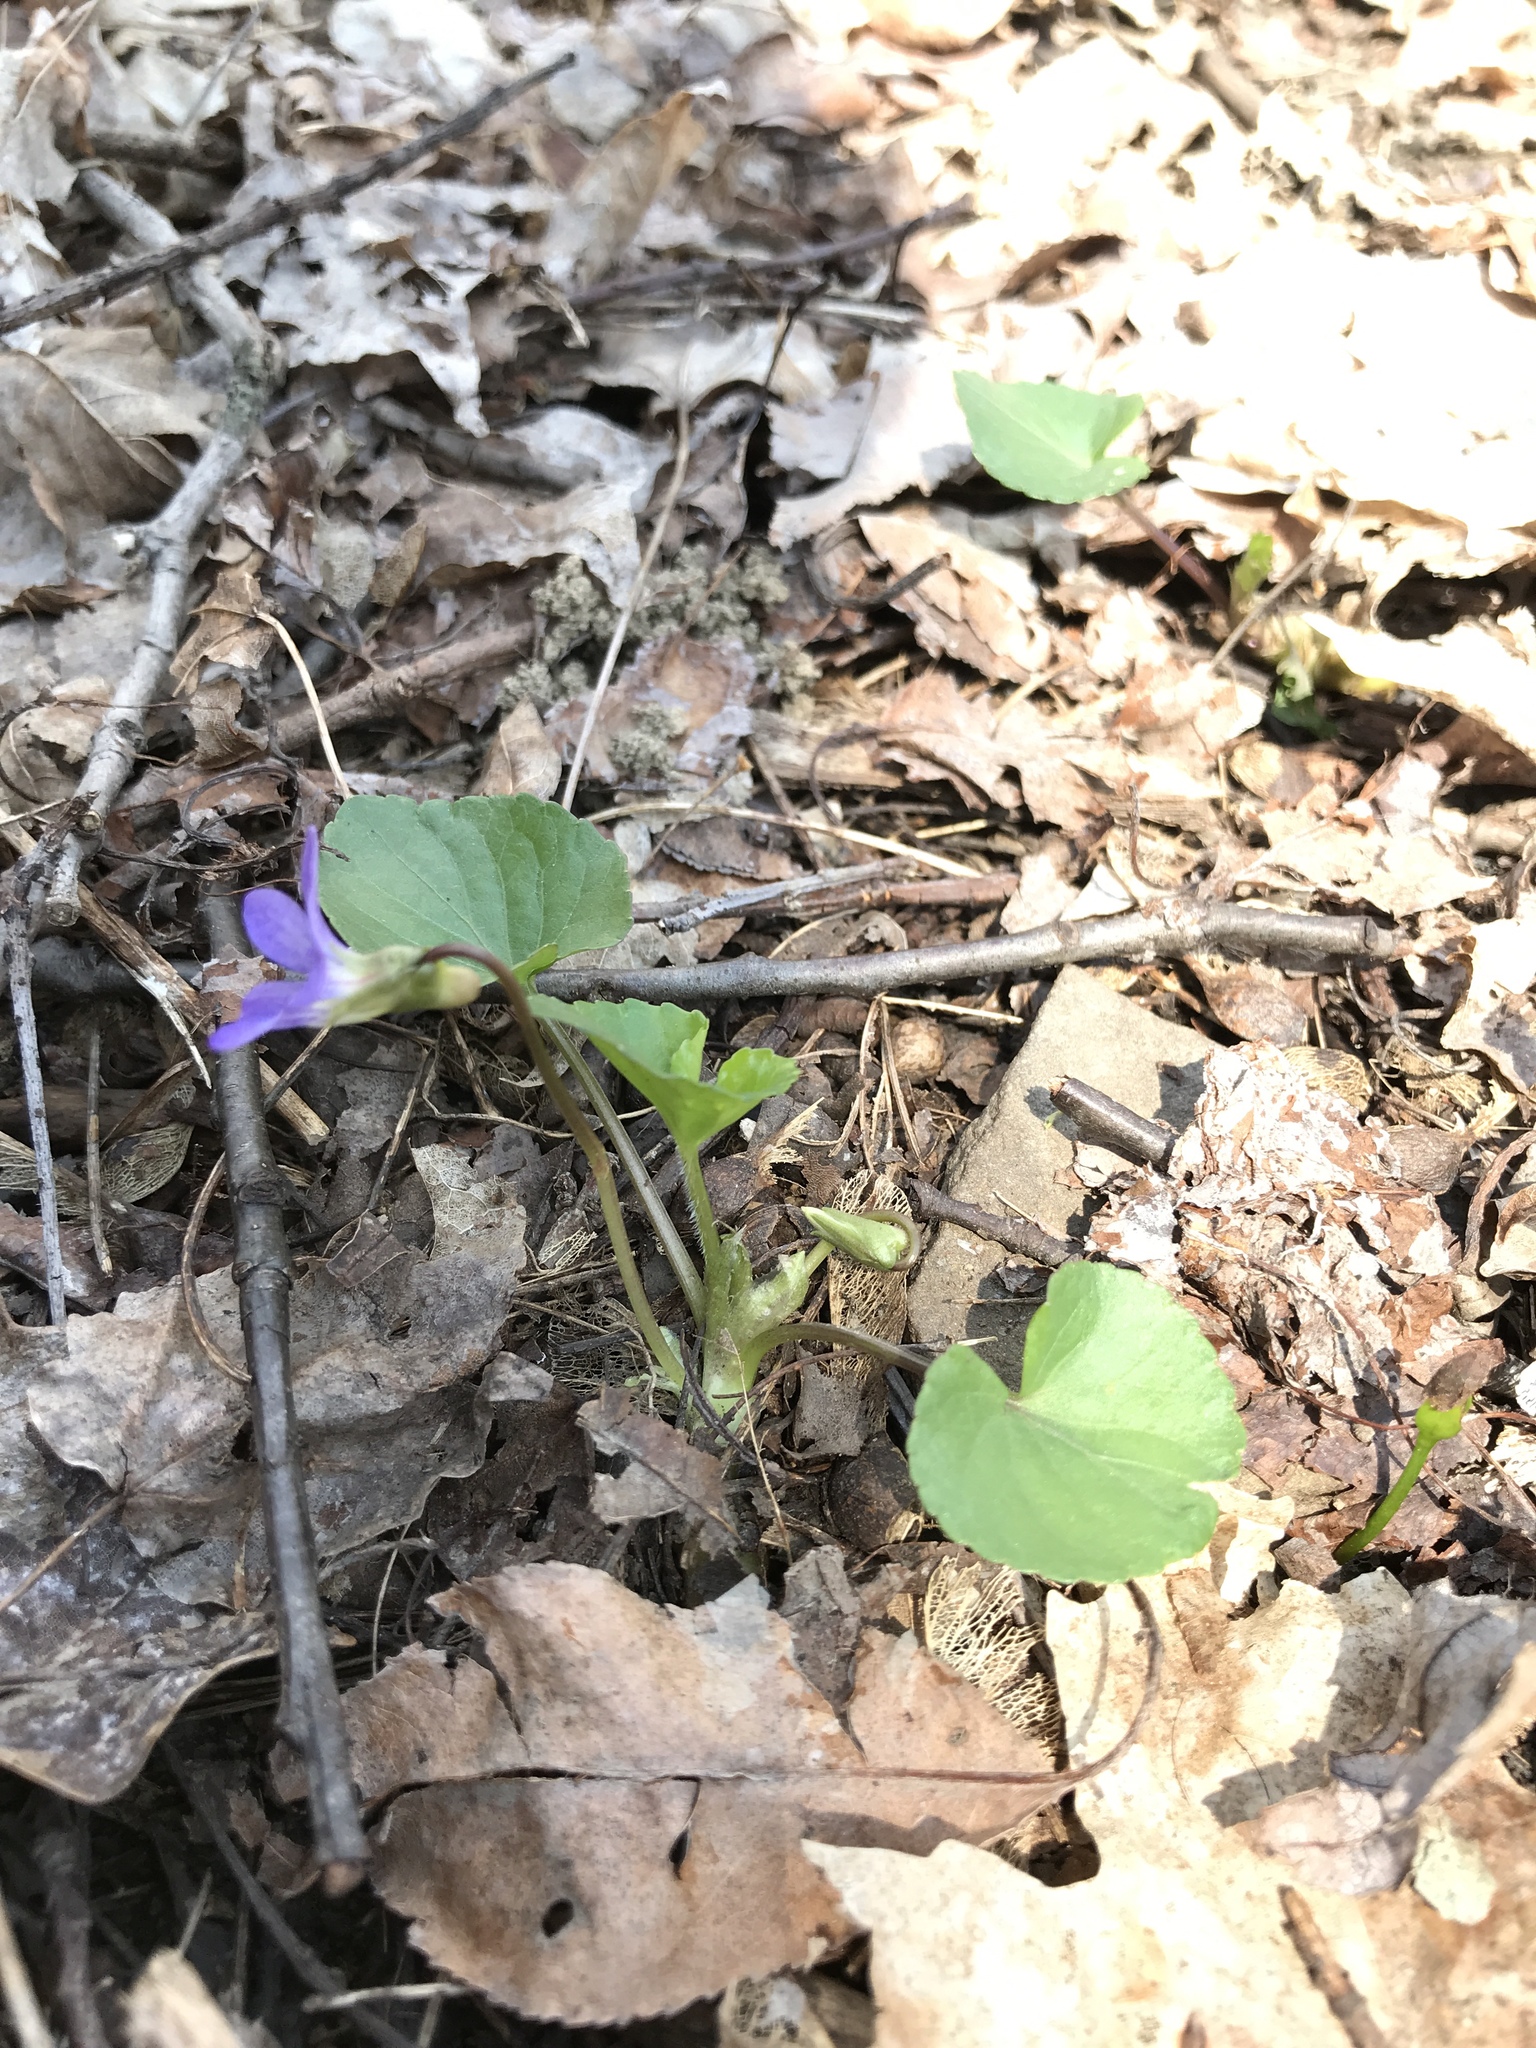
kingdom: Plantae
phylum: Tracheophyta
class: Magnoliopsida
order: Malpighiales
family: Violaceae
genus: Viola
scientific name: Viola sororia
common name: Dooryard violet
